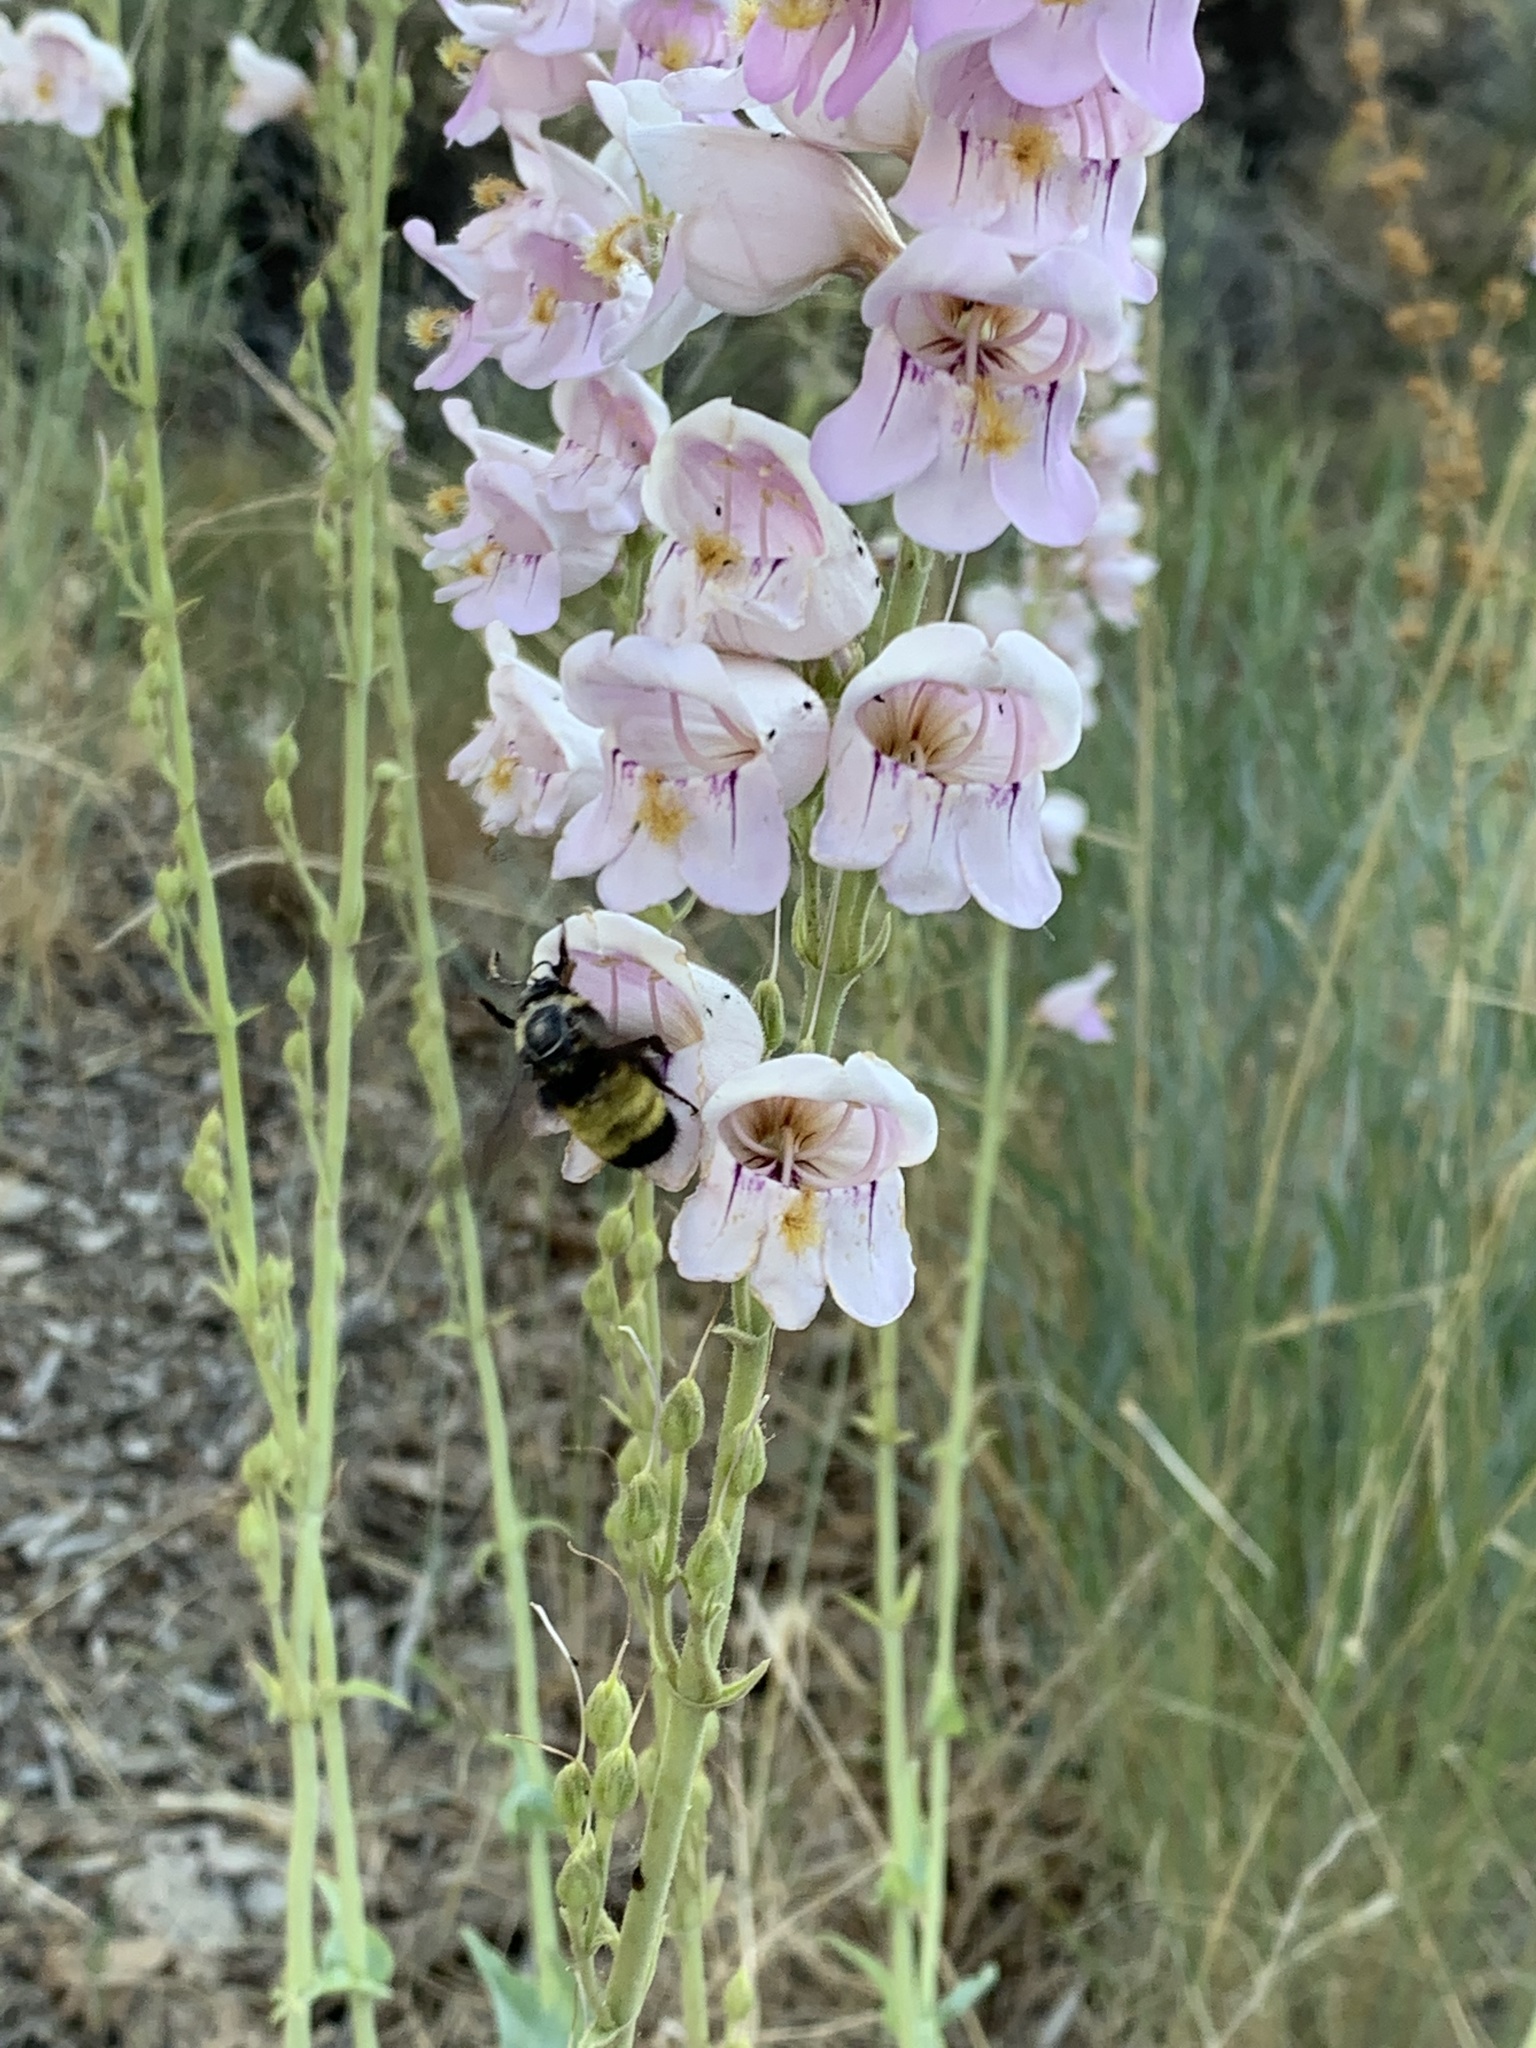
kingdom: Plantae
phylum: Tracheophyta
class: Magnoliopsida
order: Lamiales
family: Plantaginaceae
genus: Penstemon
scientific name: Penstemon palmeri
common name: Palmer penstemon
